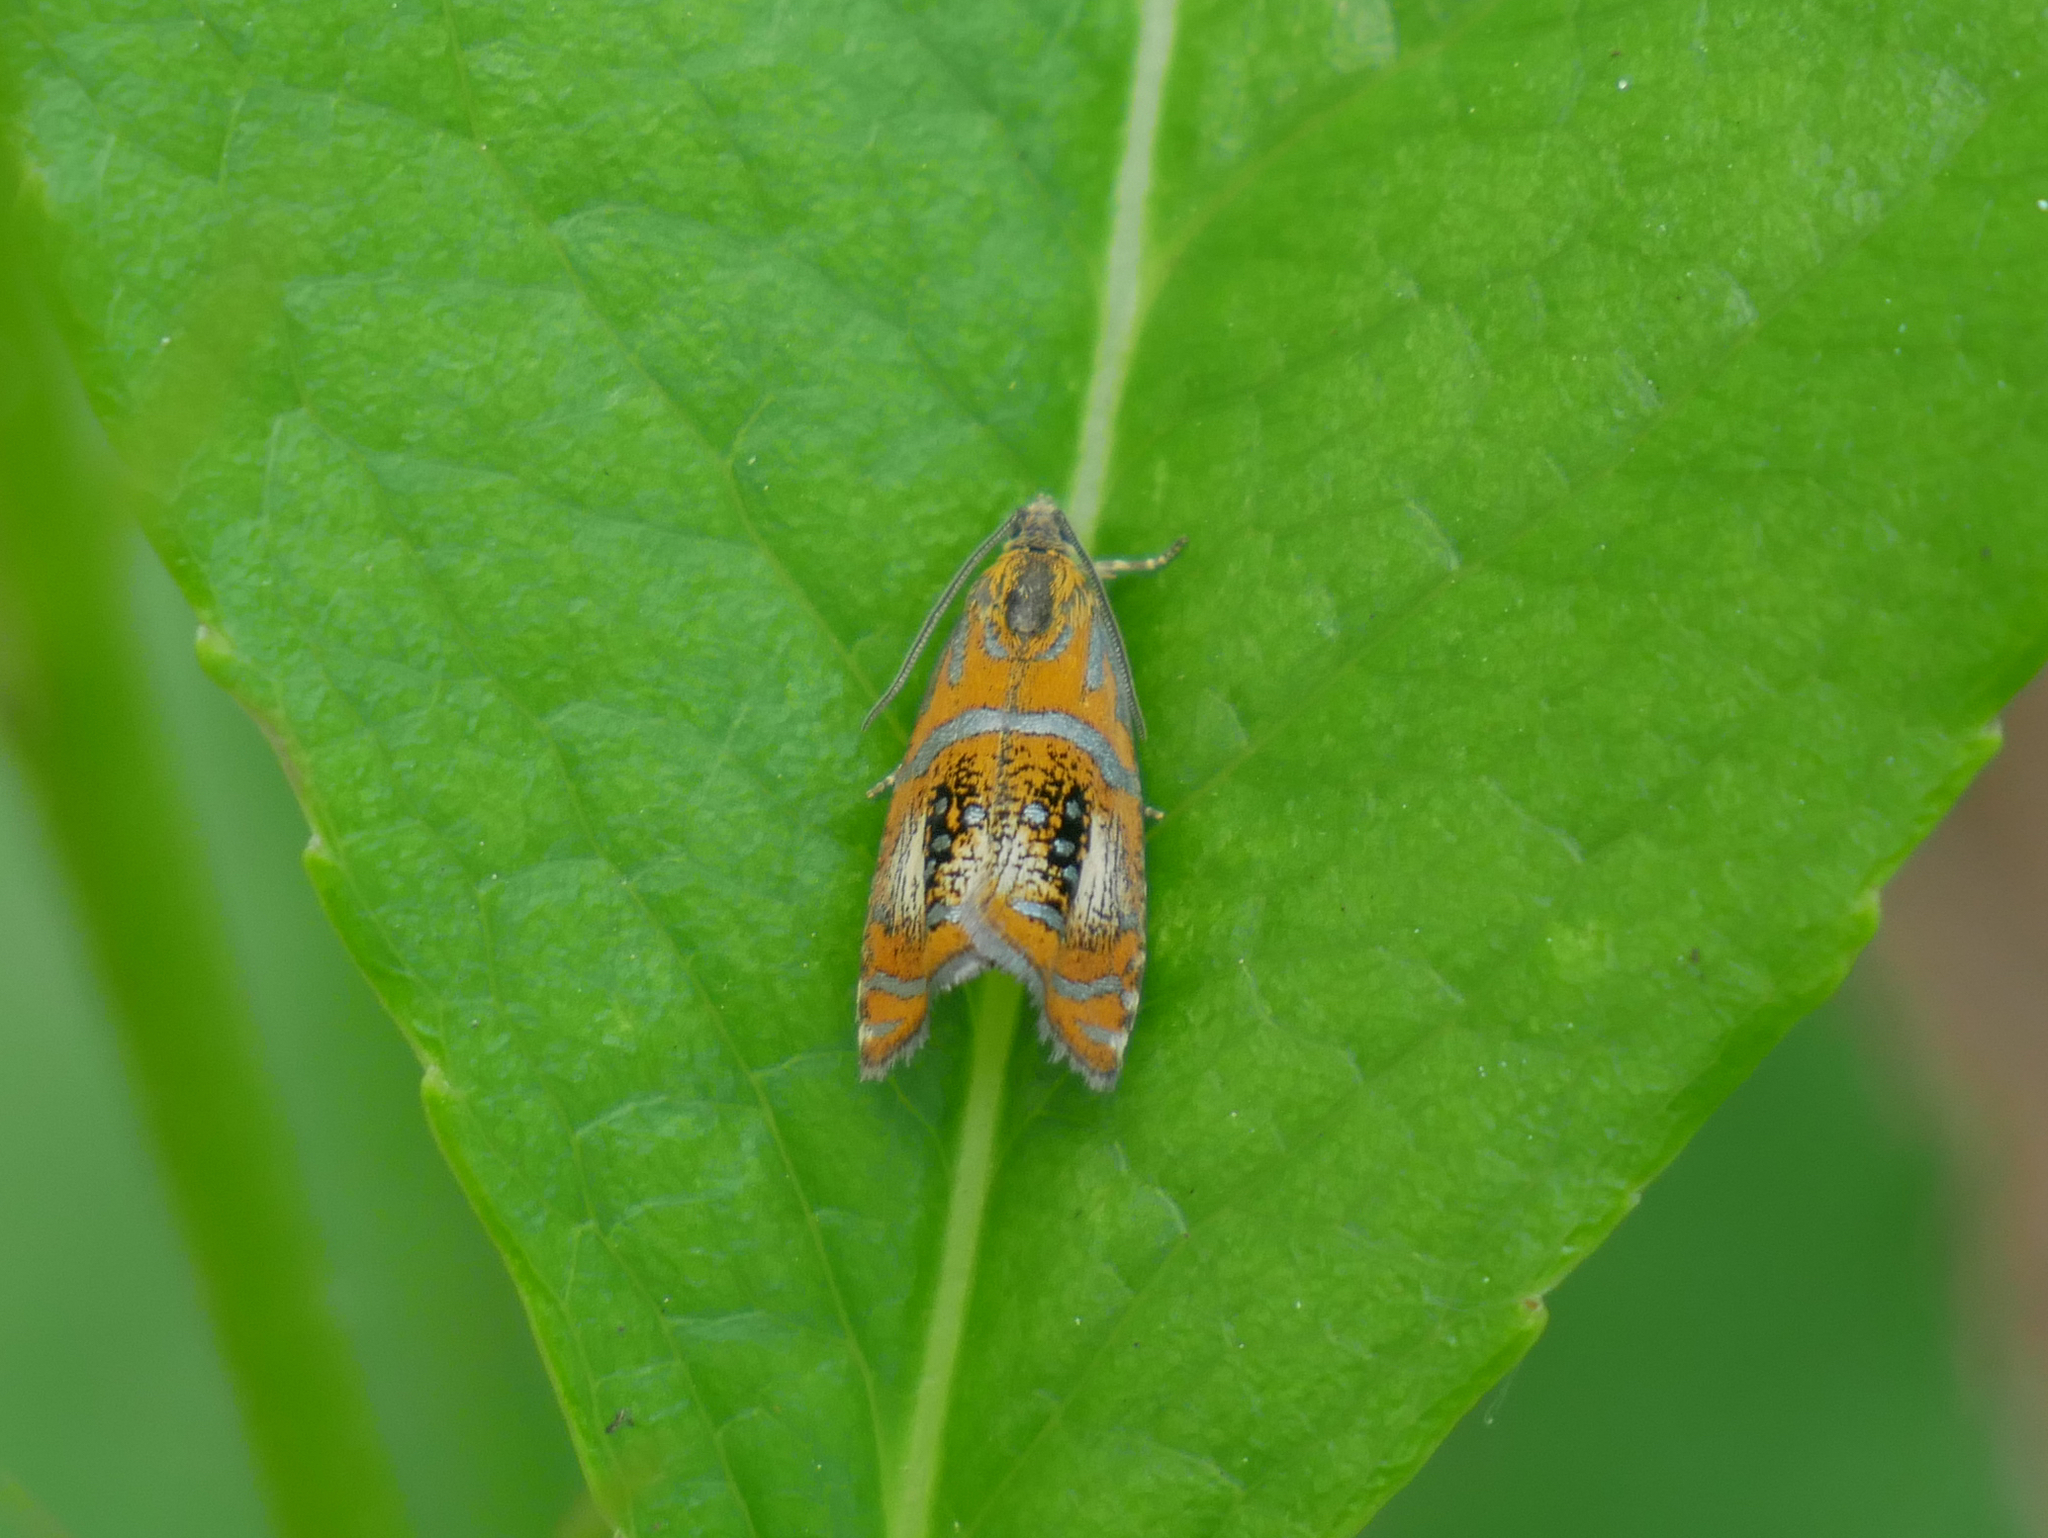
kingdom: Animalia
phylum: Arthropoda
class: Insecta
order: Lepidoptera
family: Tortricidae
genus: Olethreutes
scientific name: Olethreutes arcuella
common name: Arched marble
